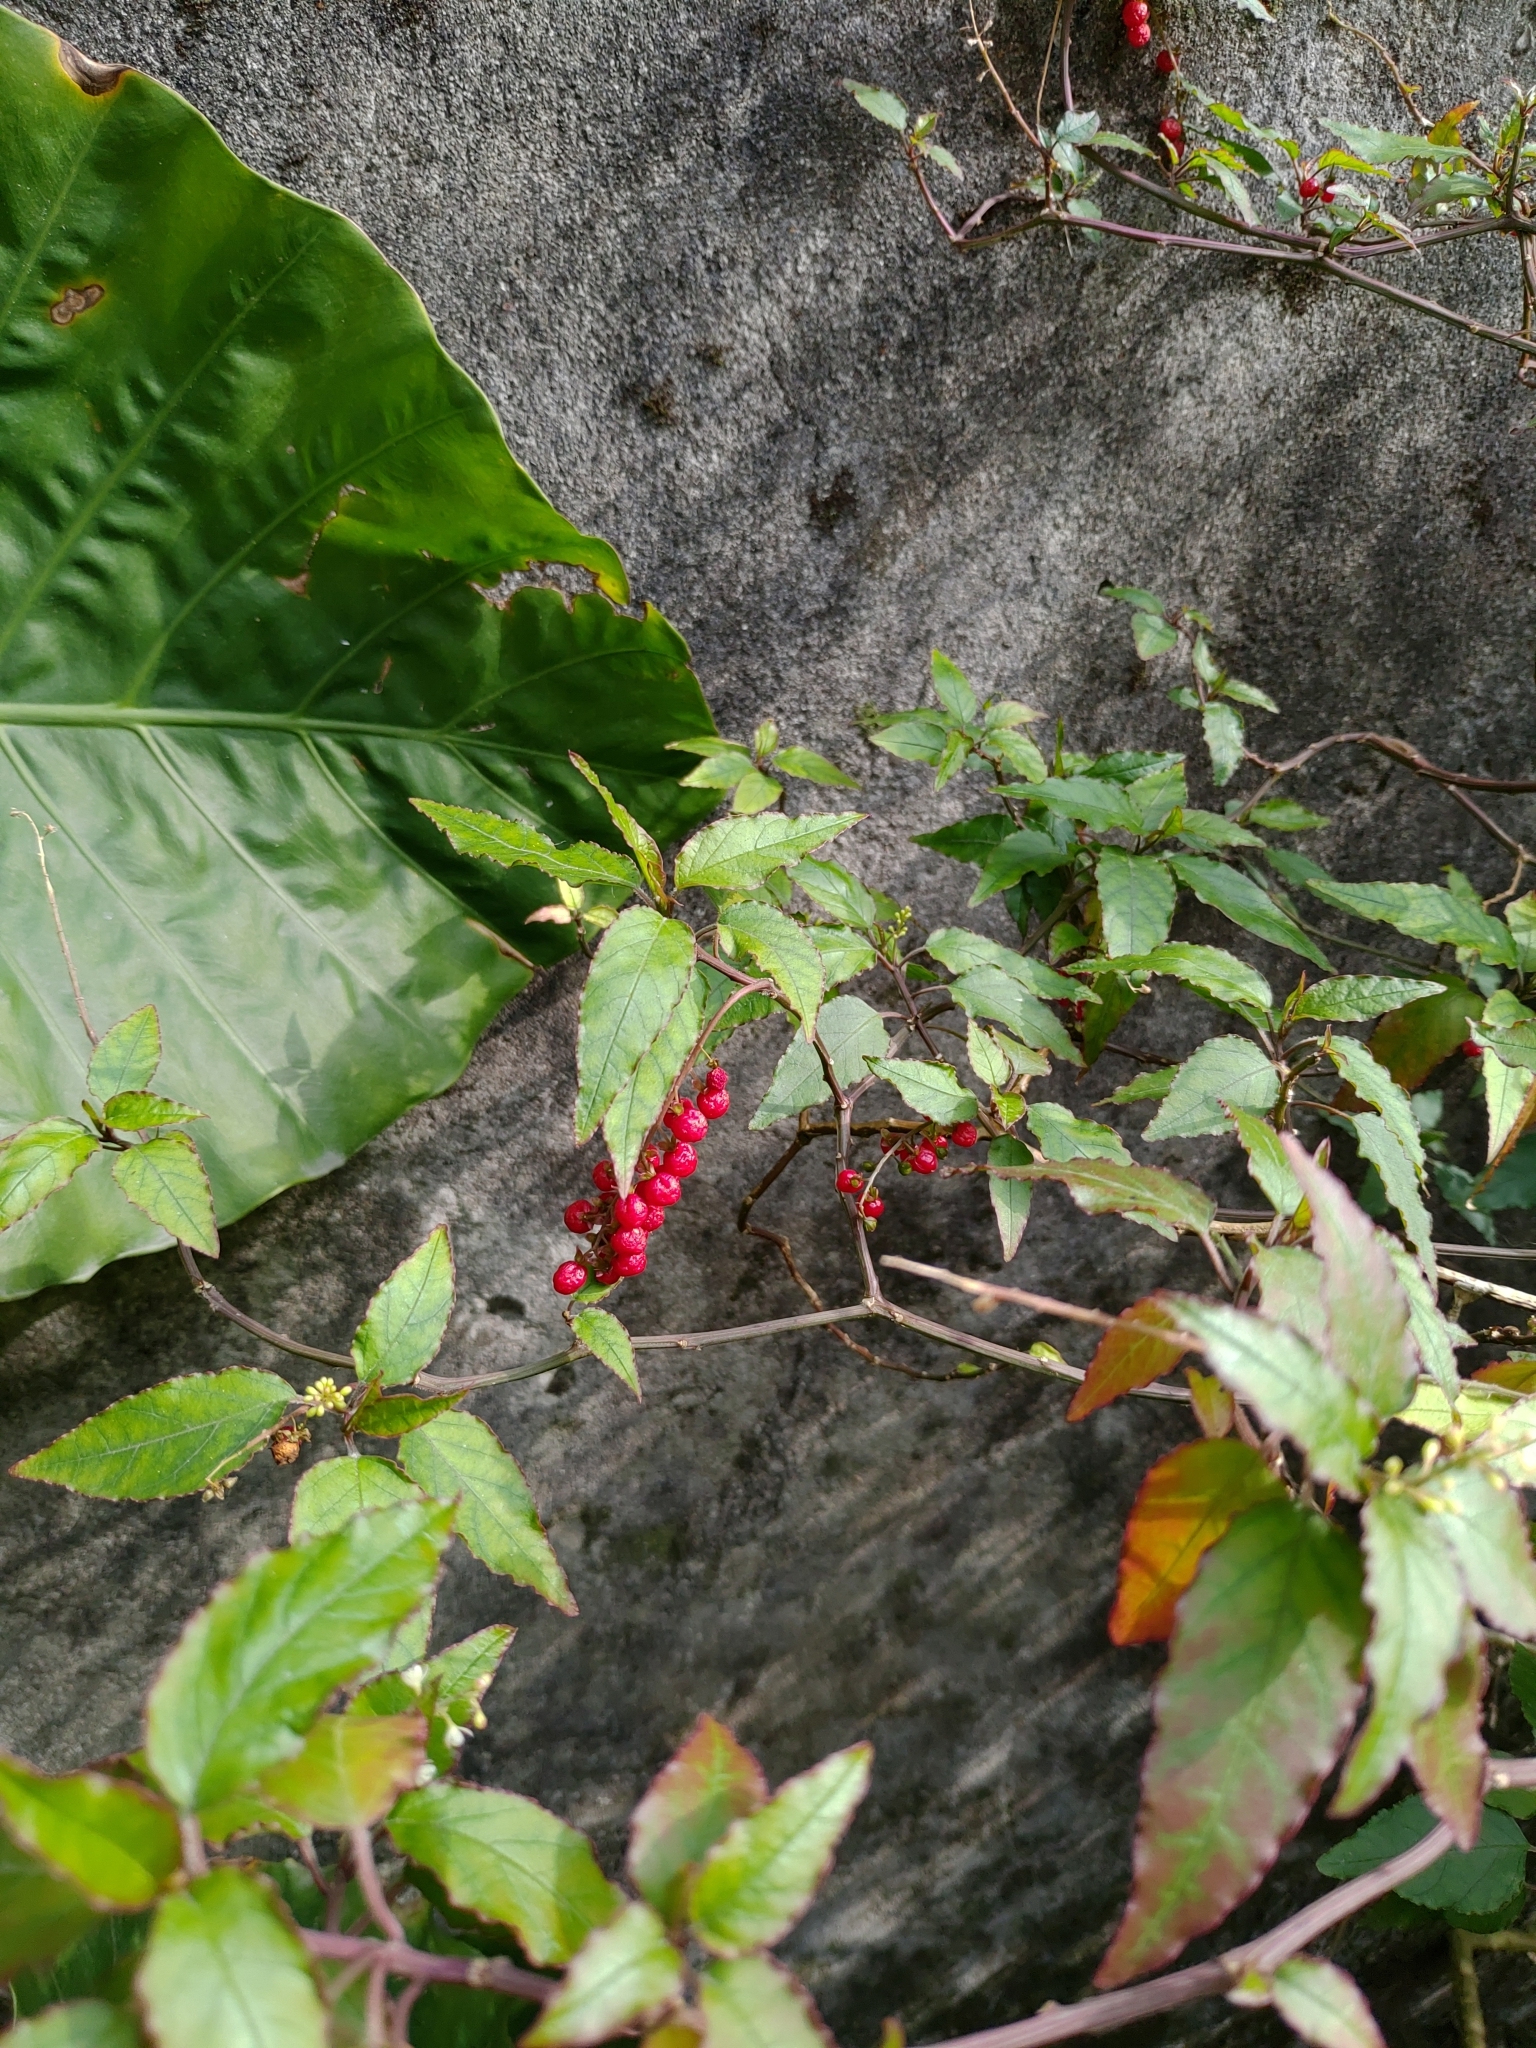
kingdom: Plantae
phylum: Tracheophyta
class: Magnoliopsida
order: Caryophyllales
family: Phytolaccaceae
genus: Rivina
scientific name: Rivina humilis
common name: Rougeplant
